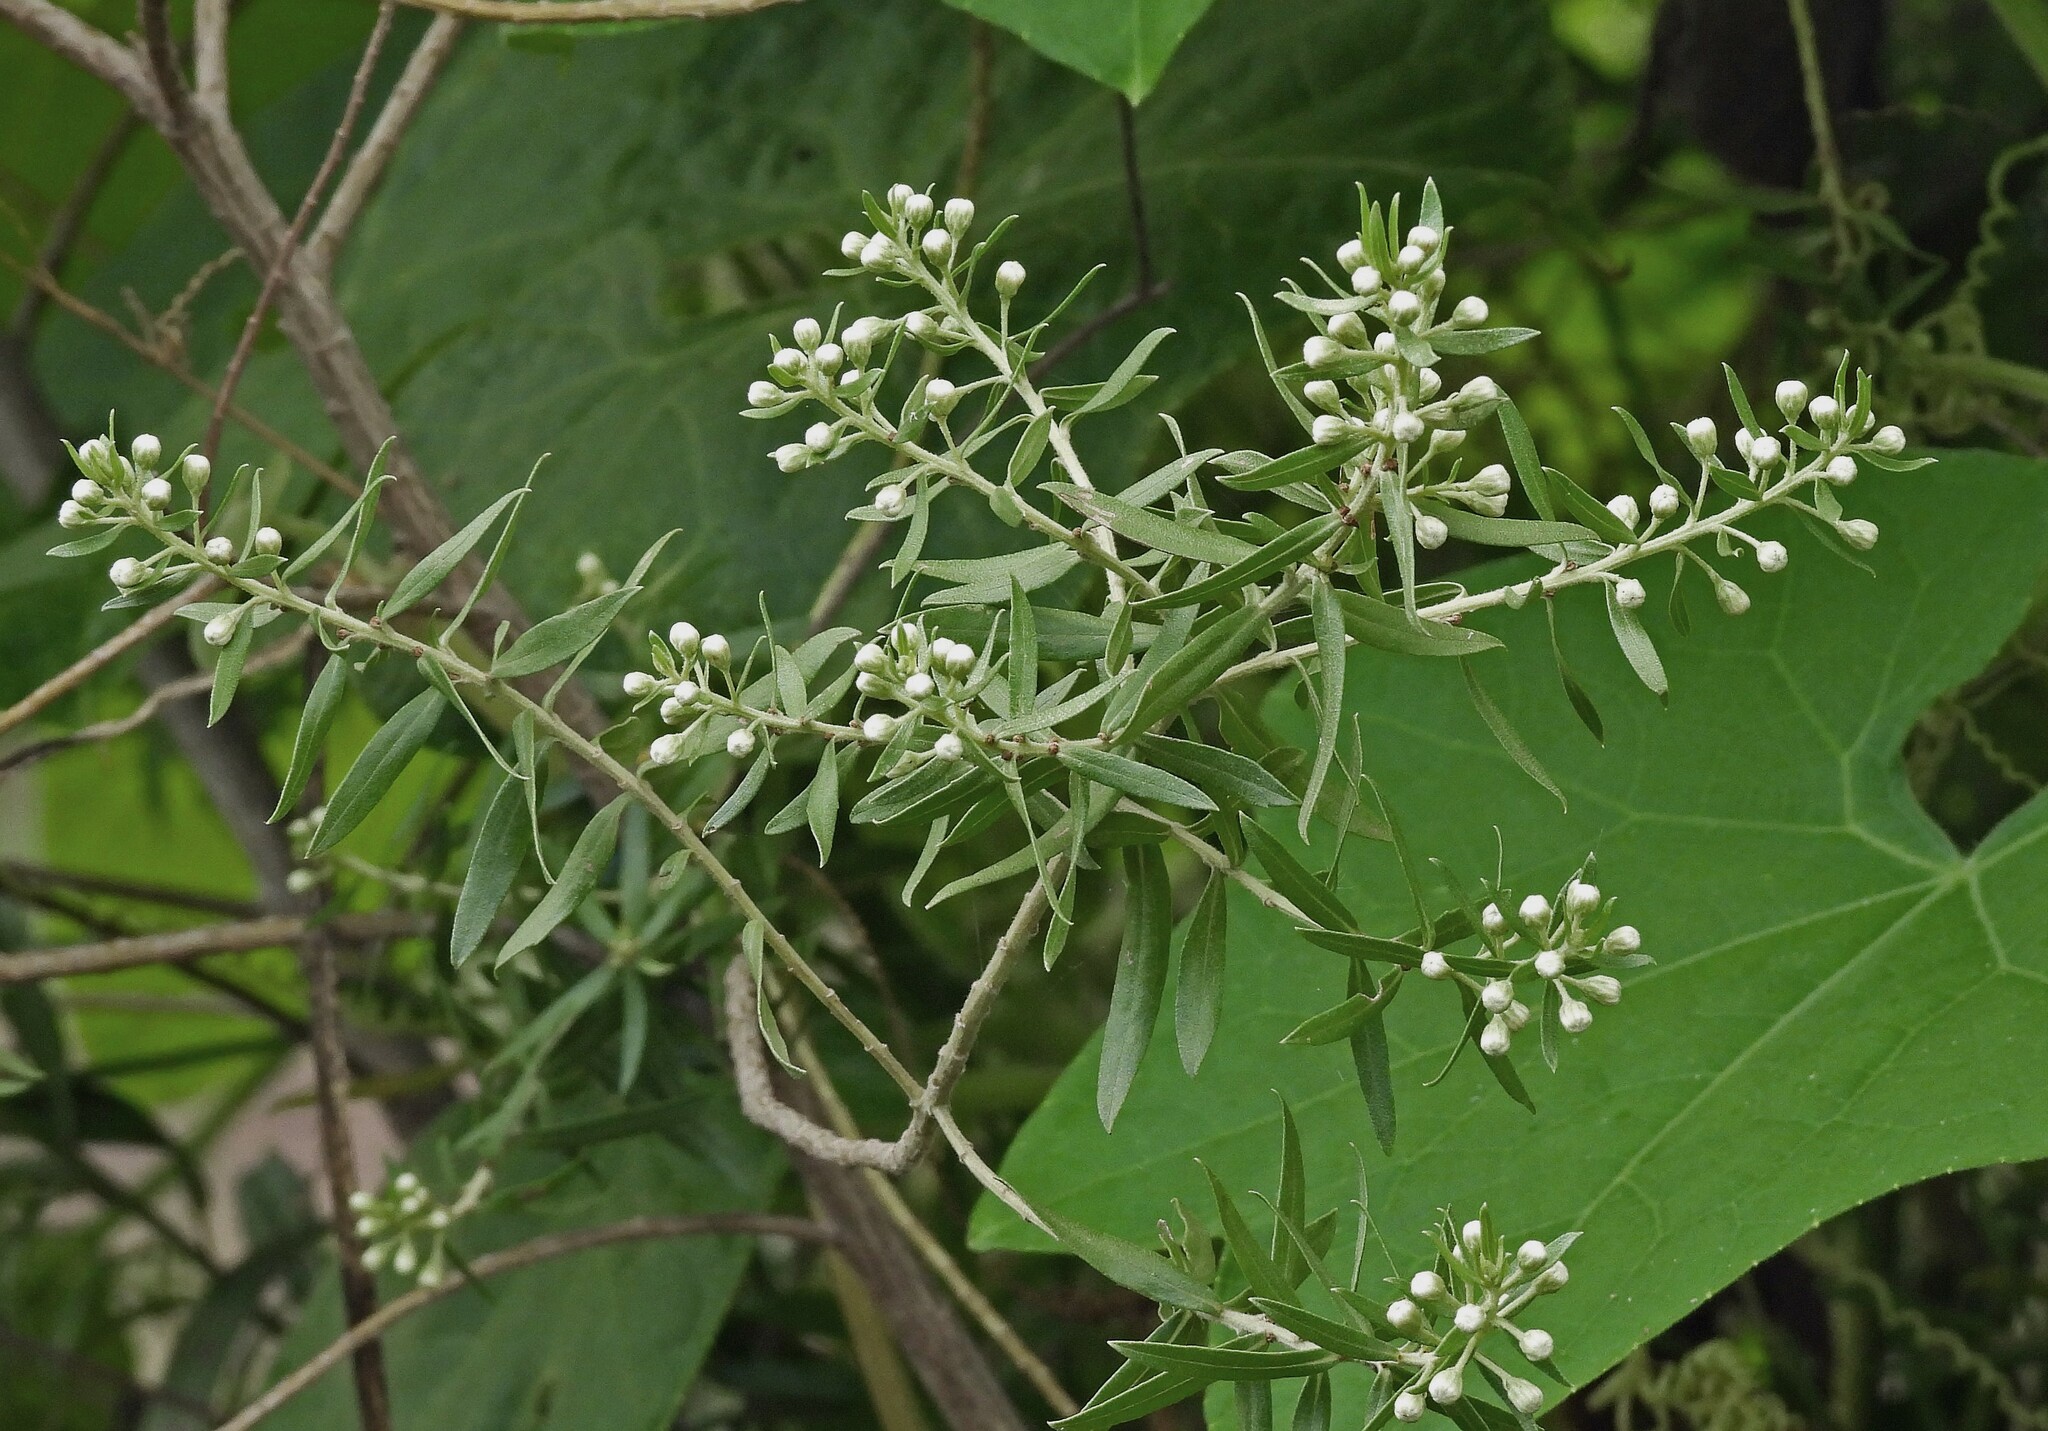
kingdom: Plantae
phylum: Tracheophyta
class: Magnoliopsida
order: Asterales
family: Asteraceae
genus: Baccharis
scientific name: Baccharis dracunculifolia
